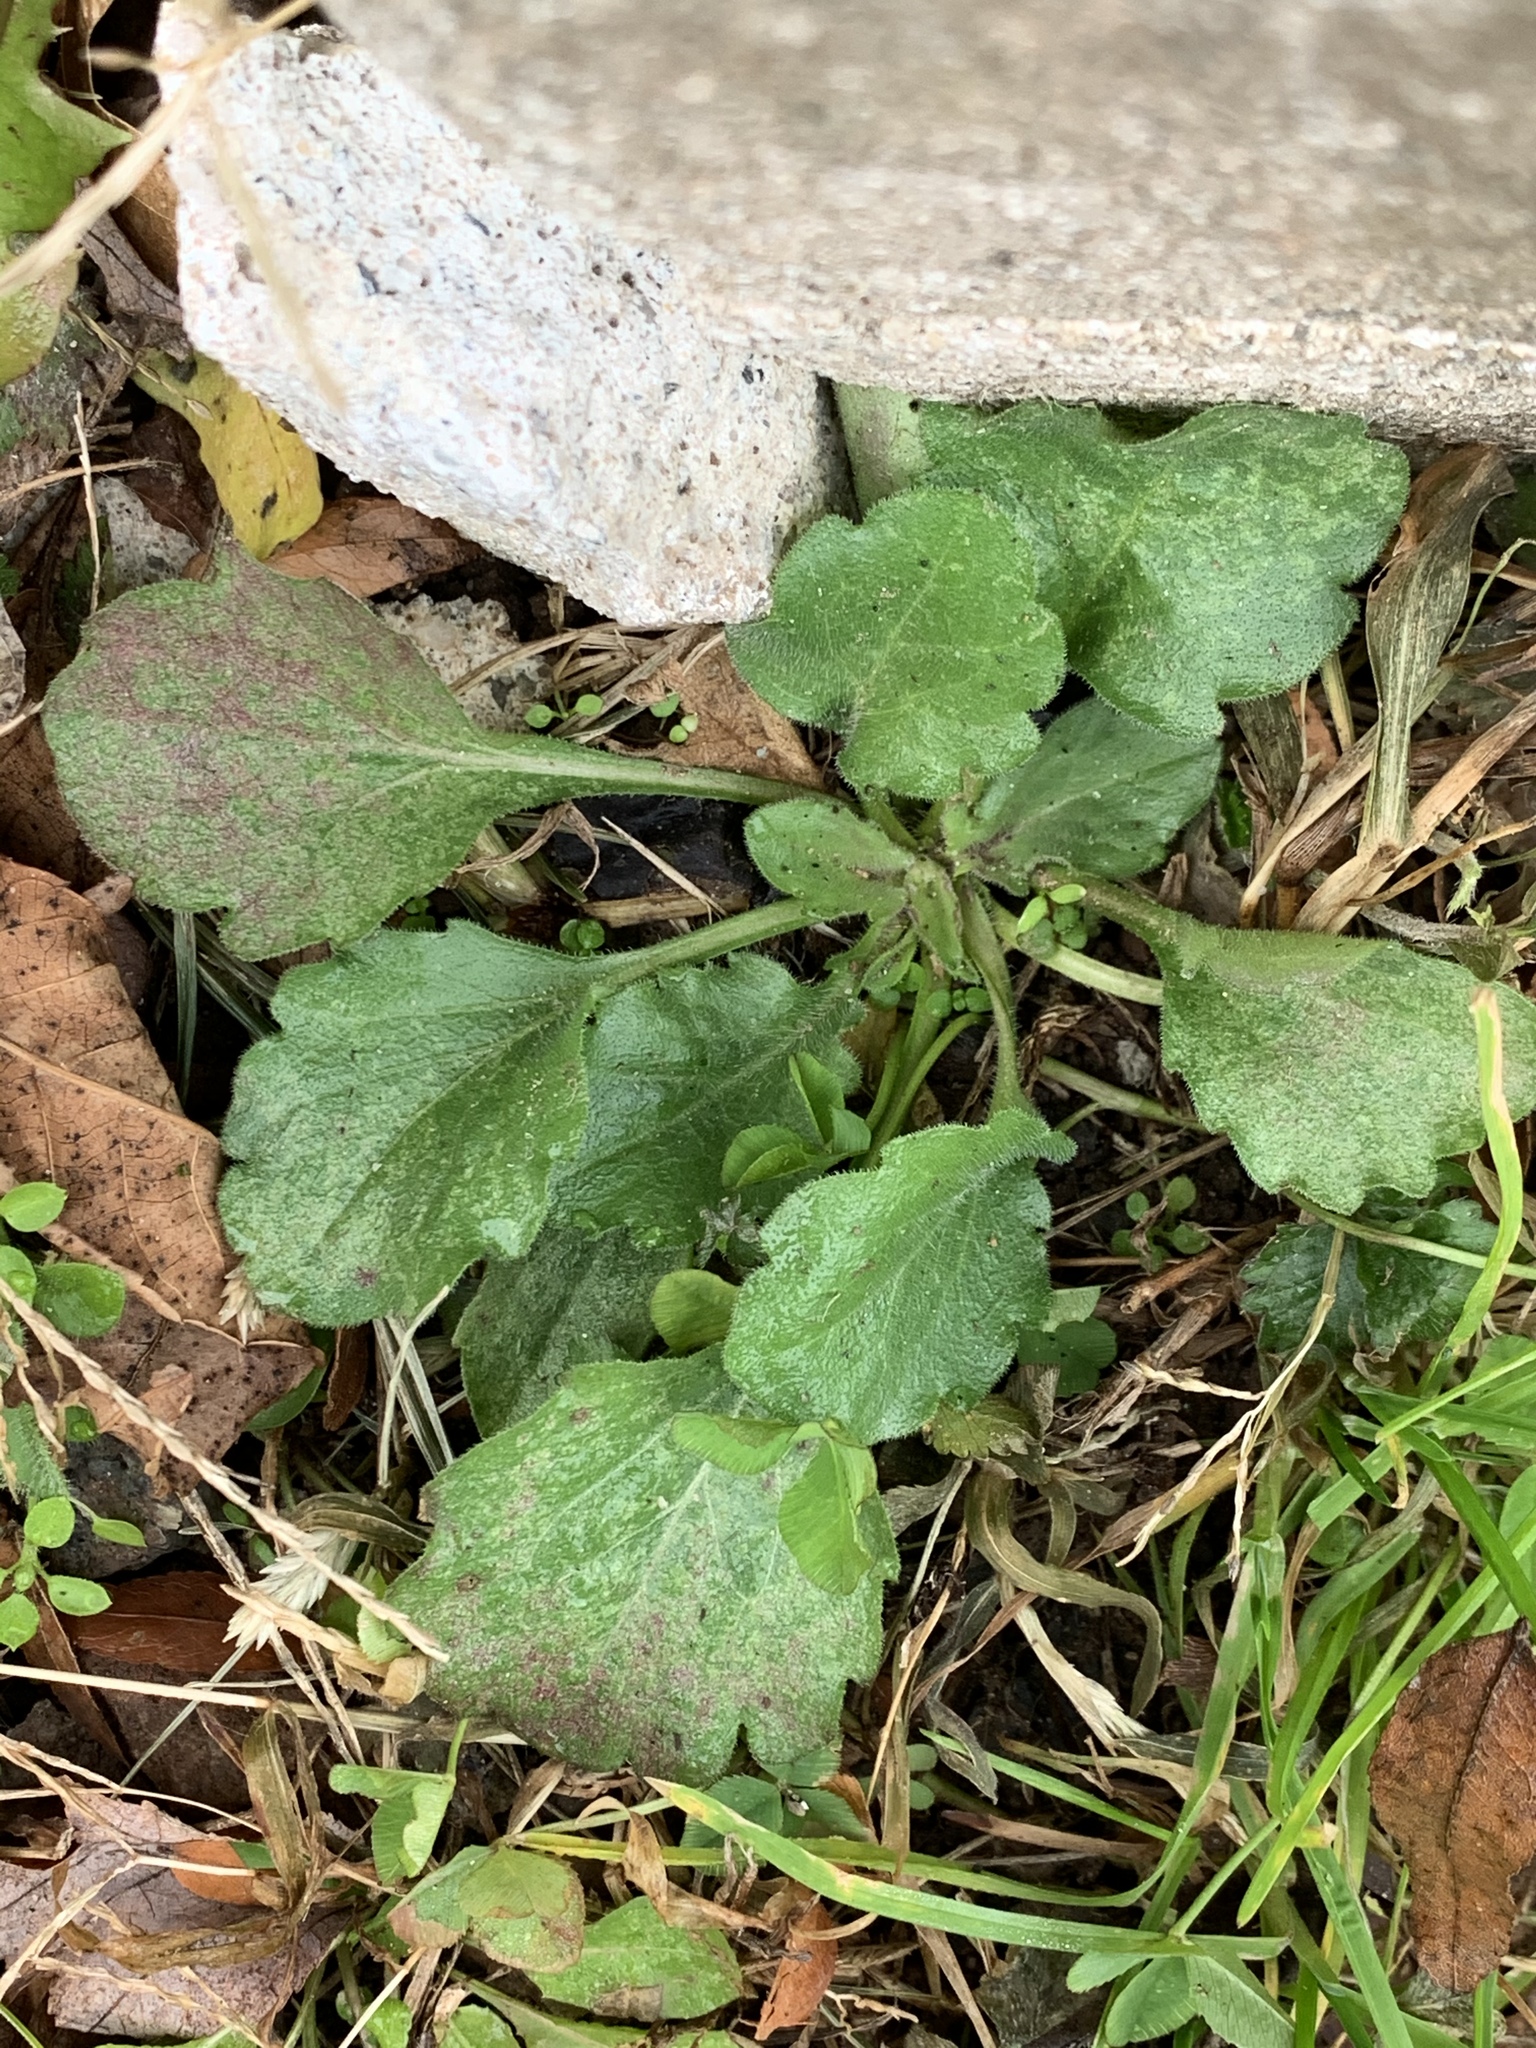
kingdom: Plantae
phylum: Tracheophyta
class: Magnoliopsida
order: Asterales
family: Asteraceae
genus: Erigeron
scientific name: Erigeron canadensis
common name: Canadian fleabane
